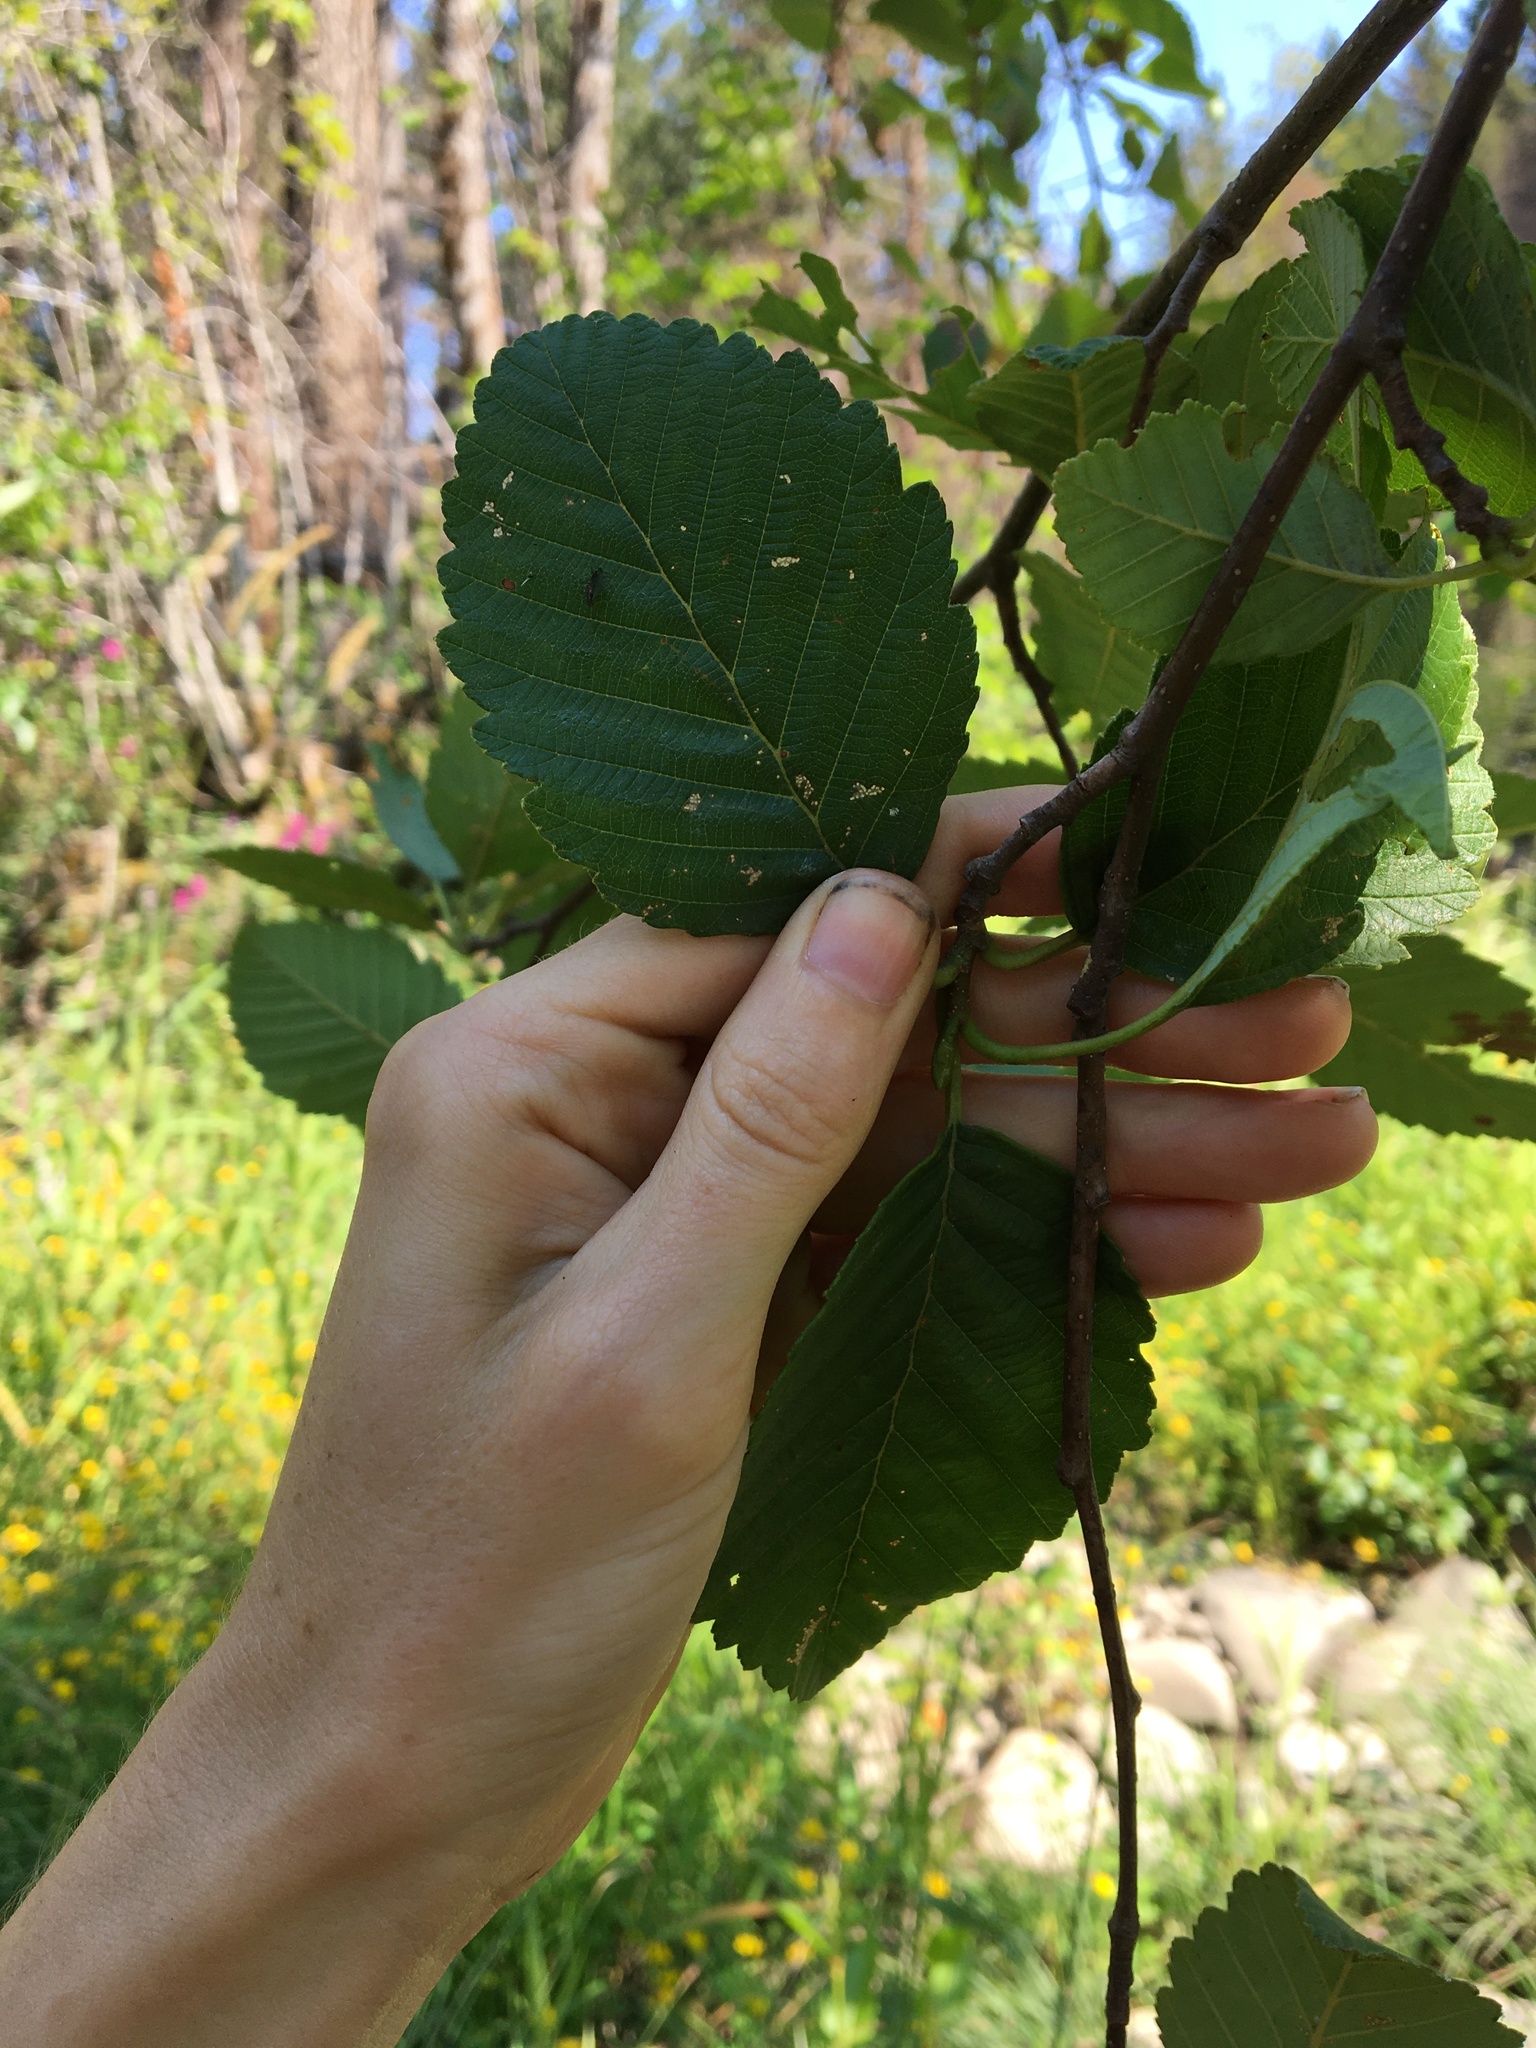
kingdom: Plantae
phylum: Tracheophyta
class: Magnoliopsida
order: Fagales
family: Betulaceae
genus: Alnus
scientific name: Alnus rubra
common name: Red alder
